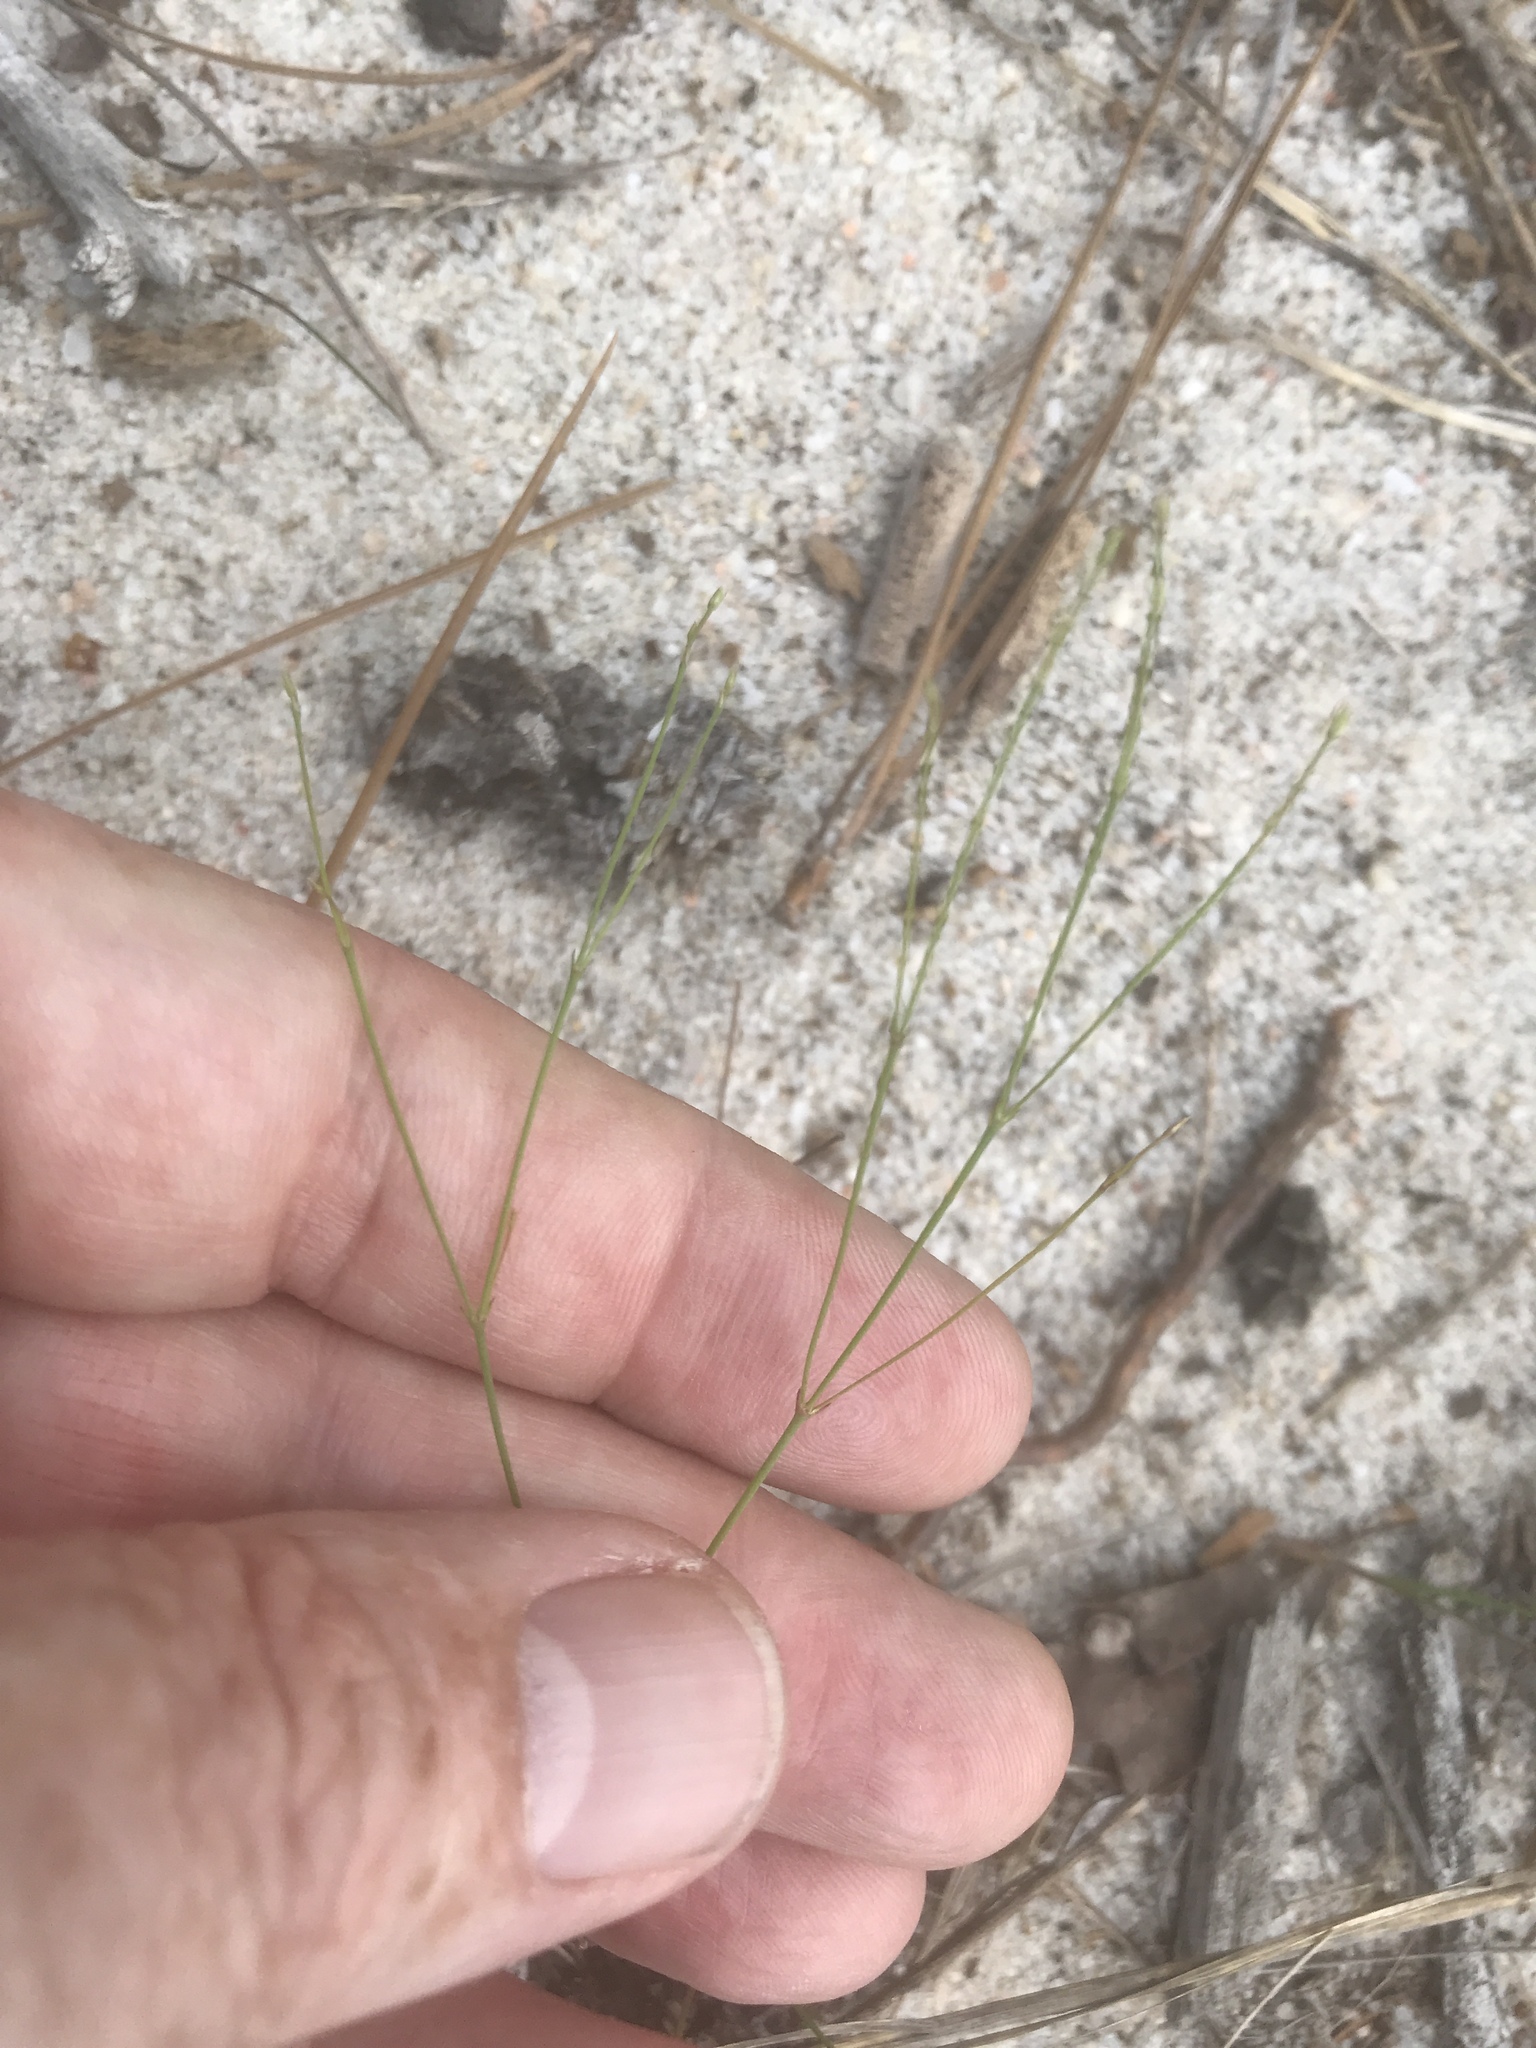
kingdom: Plantae
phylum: Tracheophyta
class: Magnoliopsida
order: Caryophyllales
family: Caryophyllaceae
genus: Stipulicida
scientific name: Stipulicida setacea
